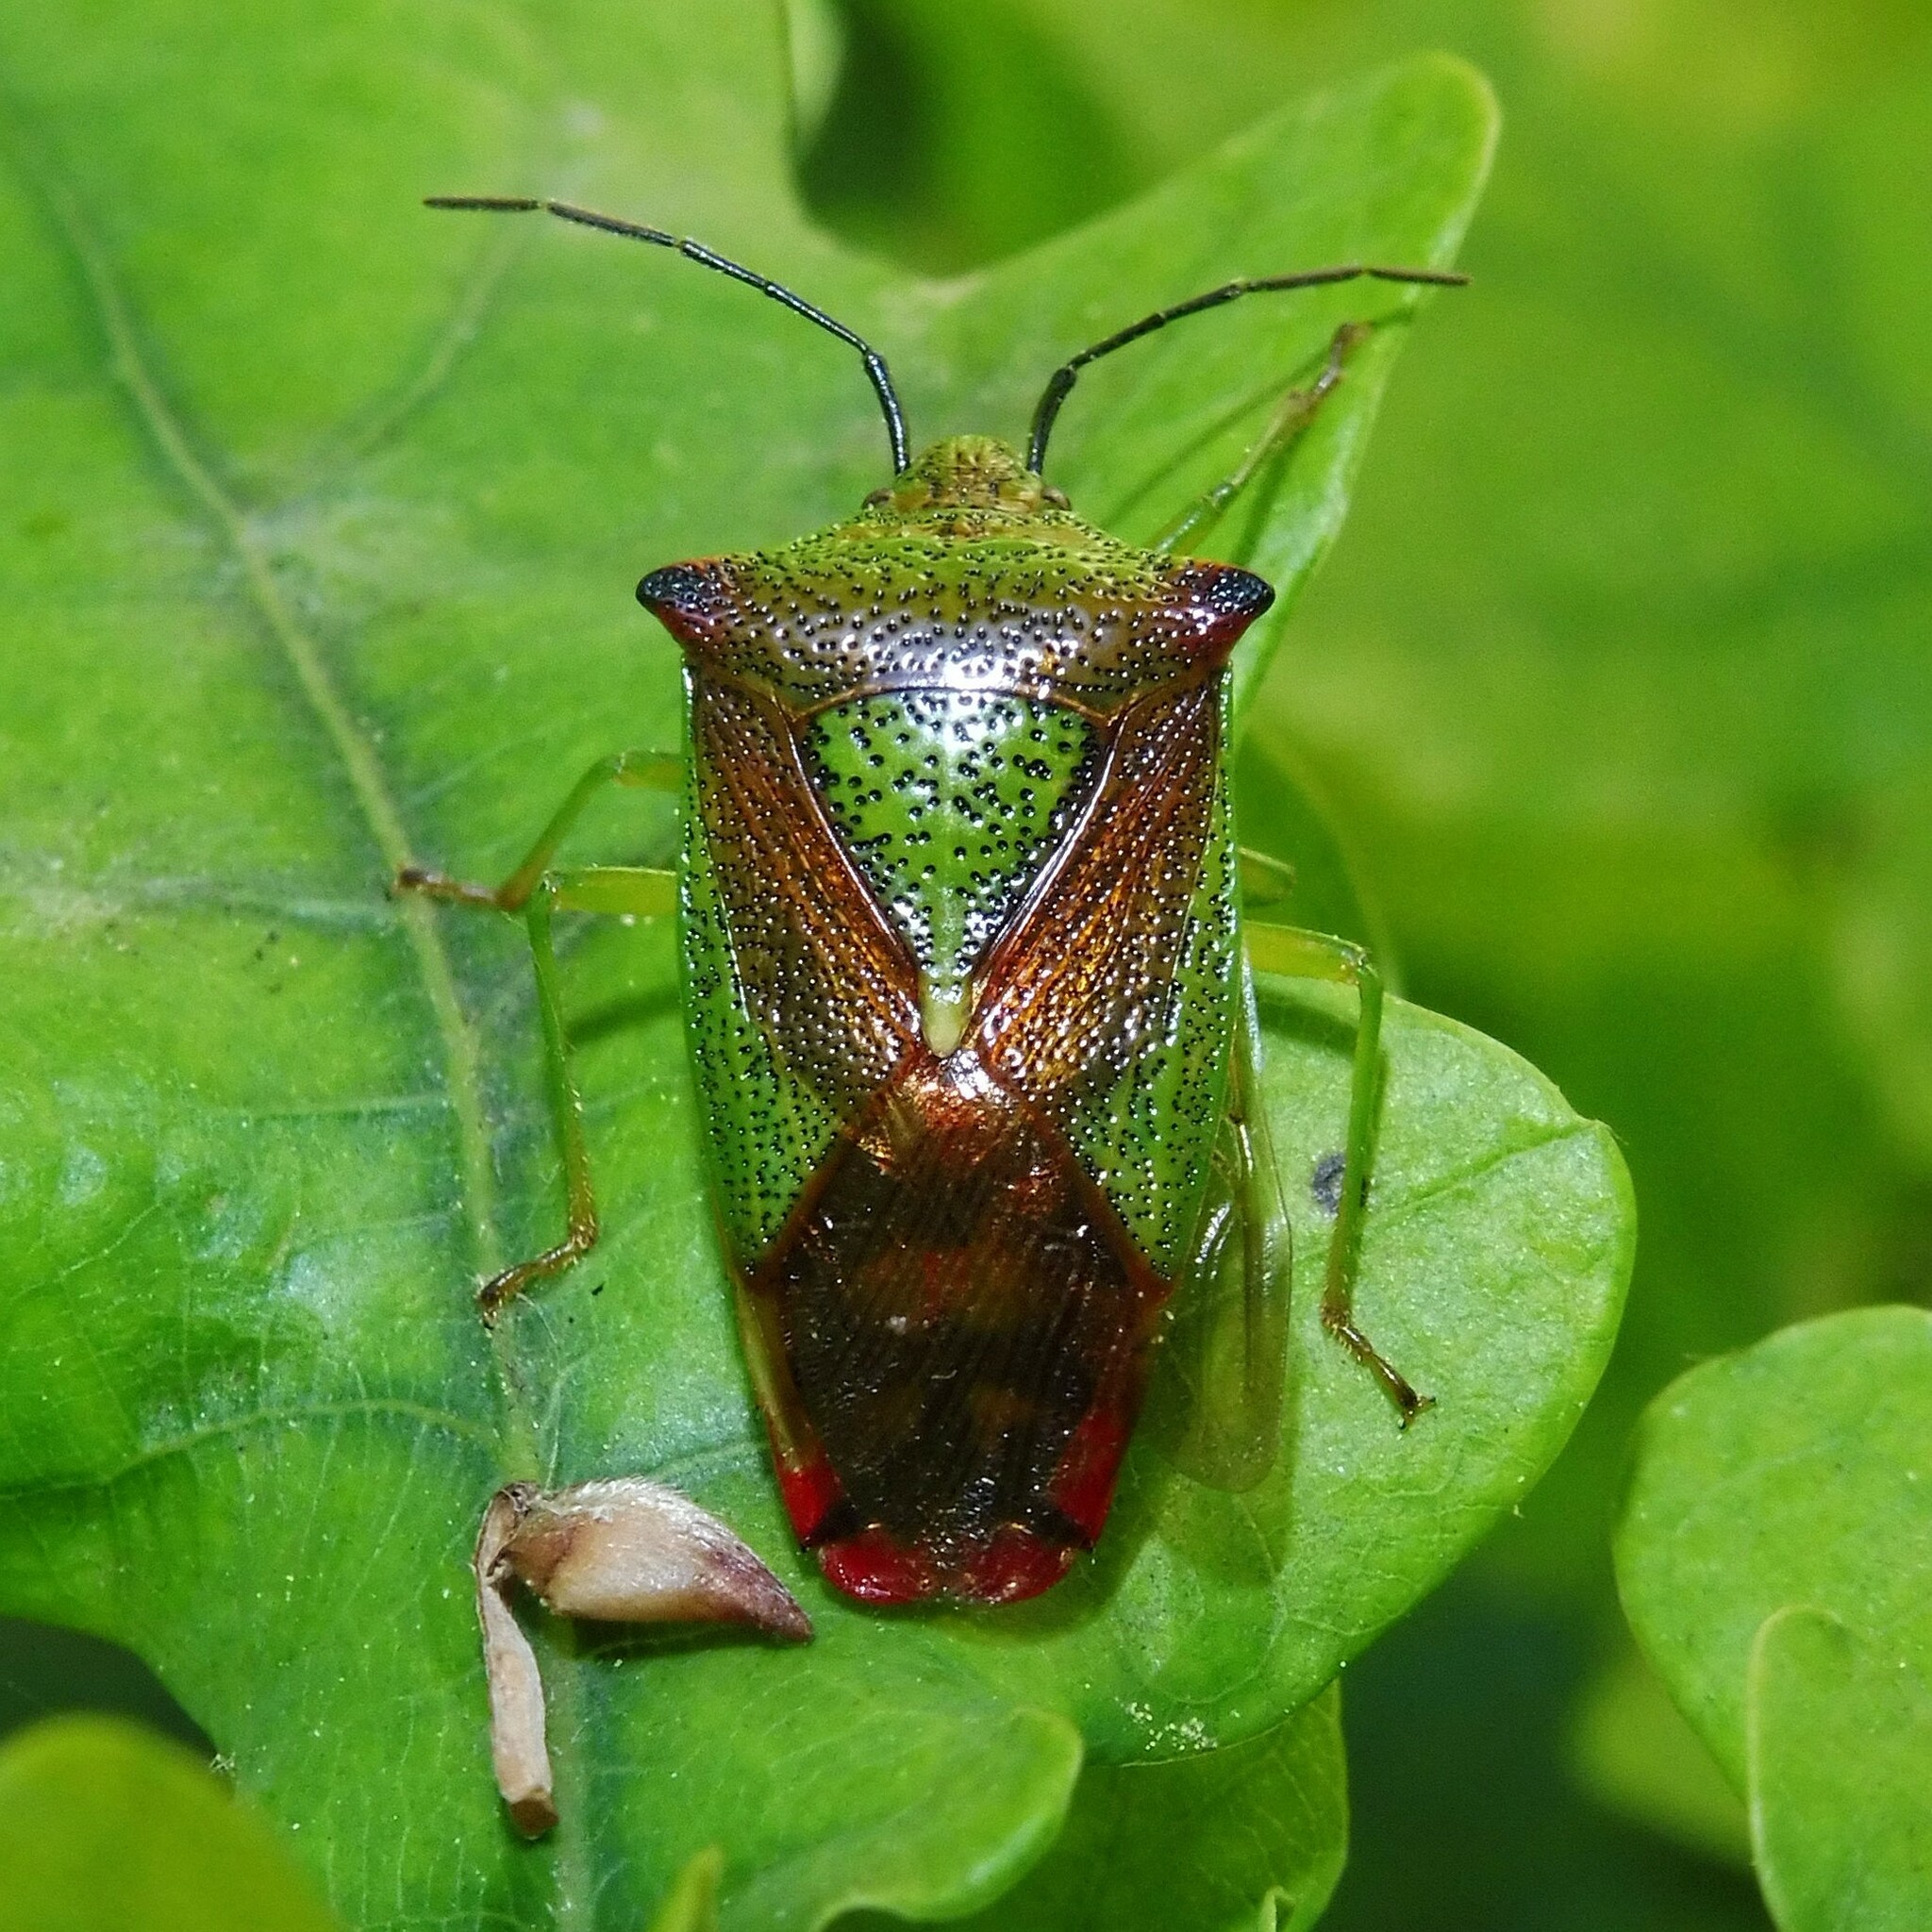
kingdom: Animalia
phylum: Arthropoda
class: Insecta
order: Hemiptera
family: Acanthosomatidae
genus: Acanthosoma
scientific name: Acanthosoma haemorrhoidale
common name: Hawthorn shieldbug
